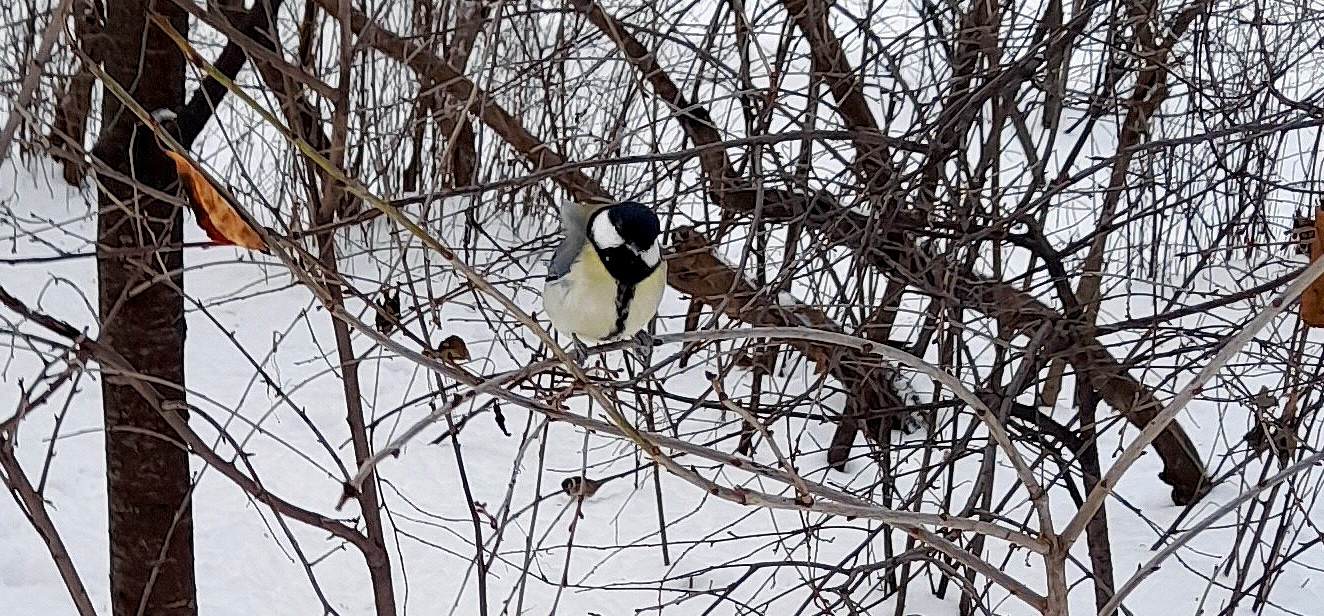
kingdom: Animalia
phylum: Chordata
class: Aves
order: Passeriformes
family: Paridae
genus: Parus
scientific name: Parus major
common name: Great tit
